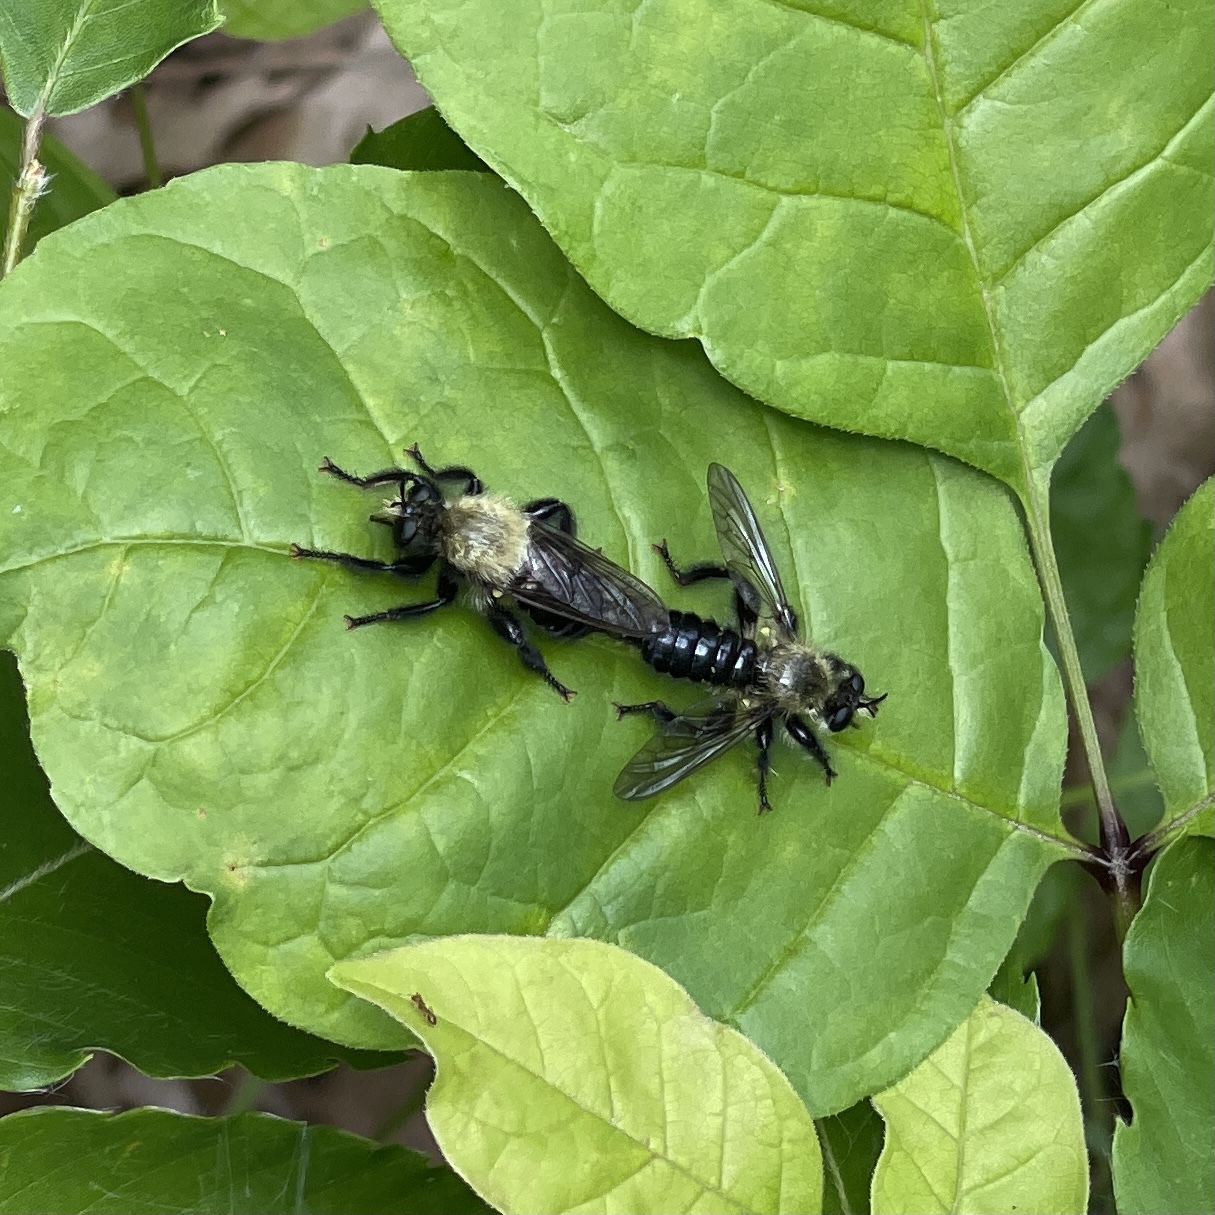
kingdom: Animalia
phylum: Arthropoda
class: Insecta
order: Diptera
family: Asilidae
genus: Laphria
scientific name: Laphria flavicollis
